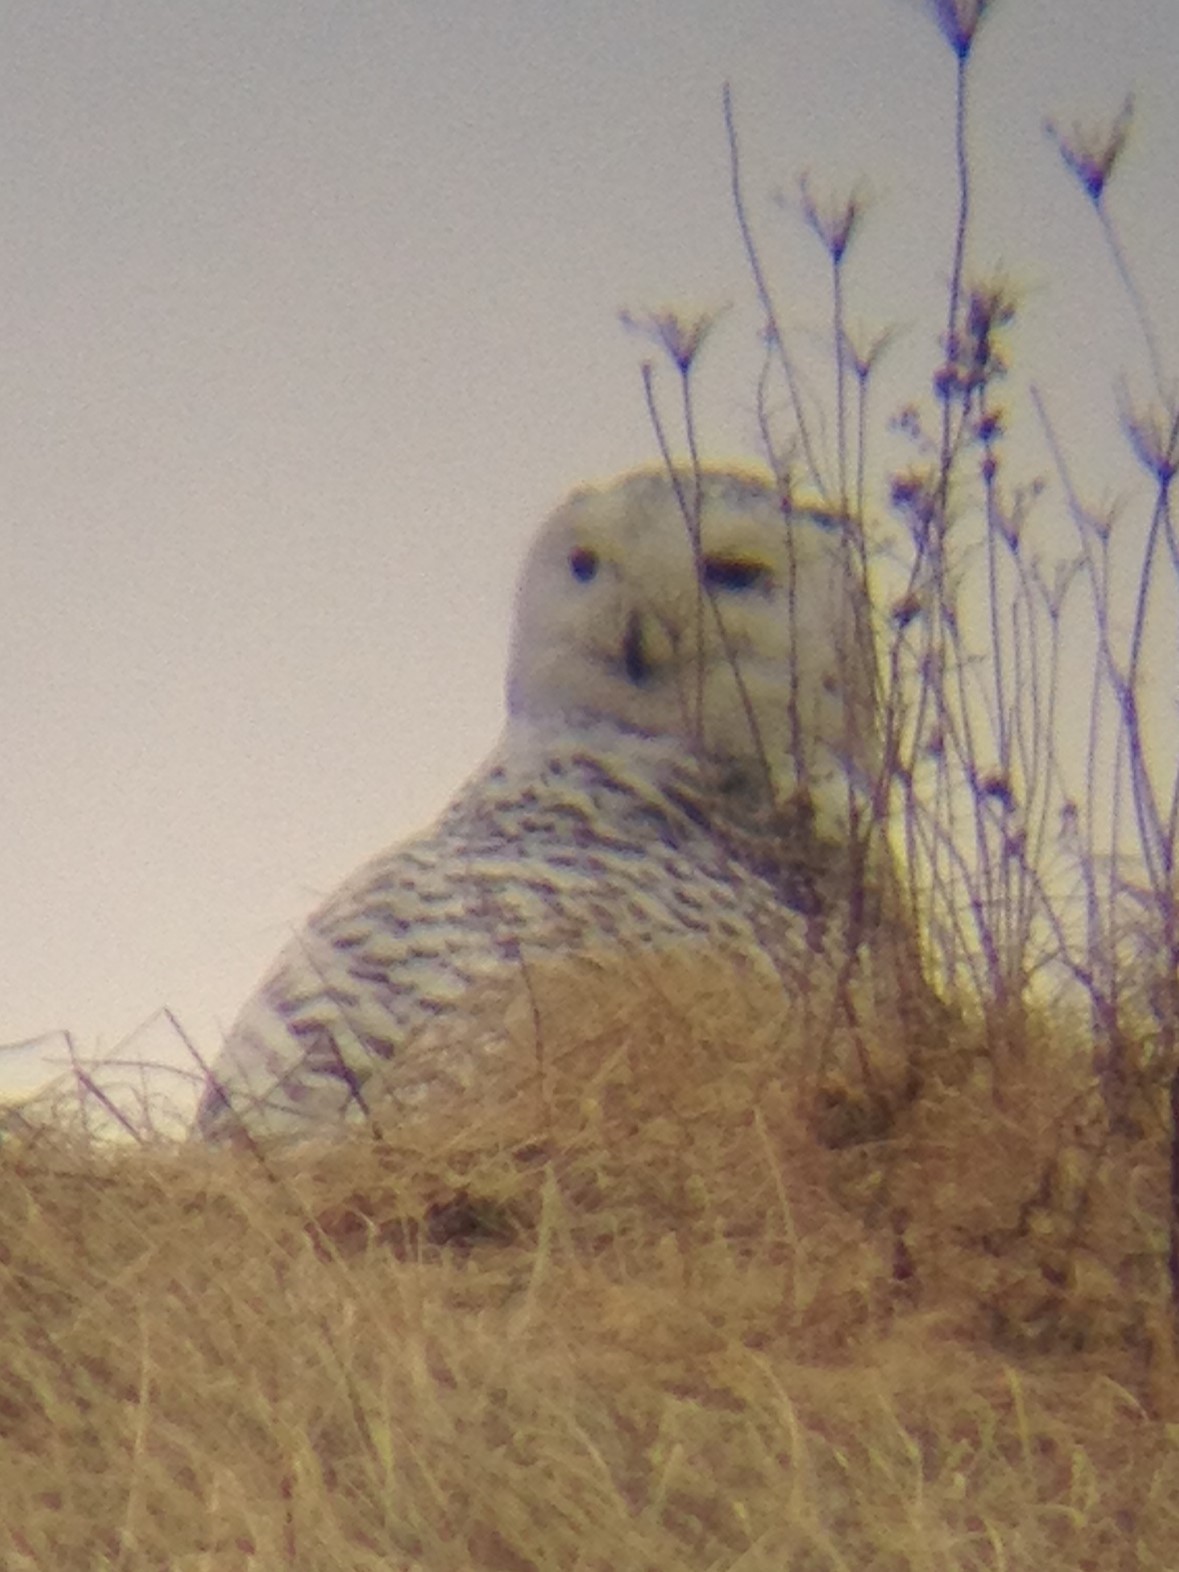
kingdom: Animalia
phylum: Chordata
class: Aves
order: Strigiformes
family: Strigidae
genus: Bubo
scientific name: Bubo scandiacus
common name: Snowy owl
